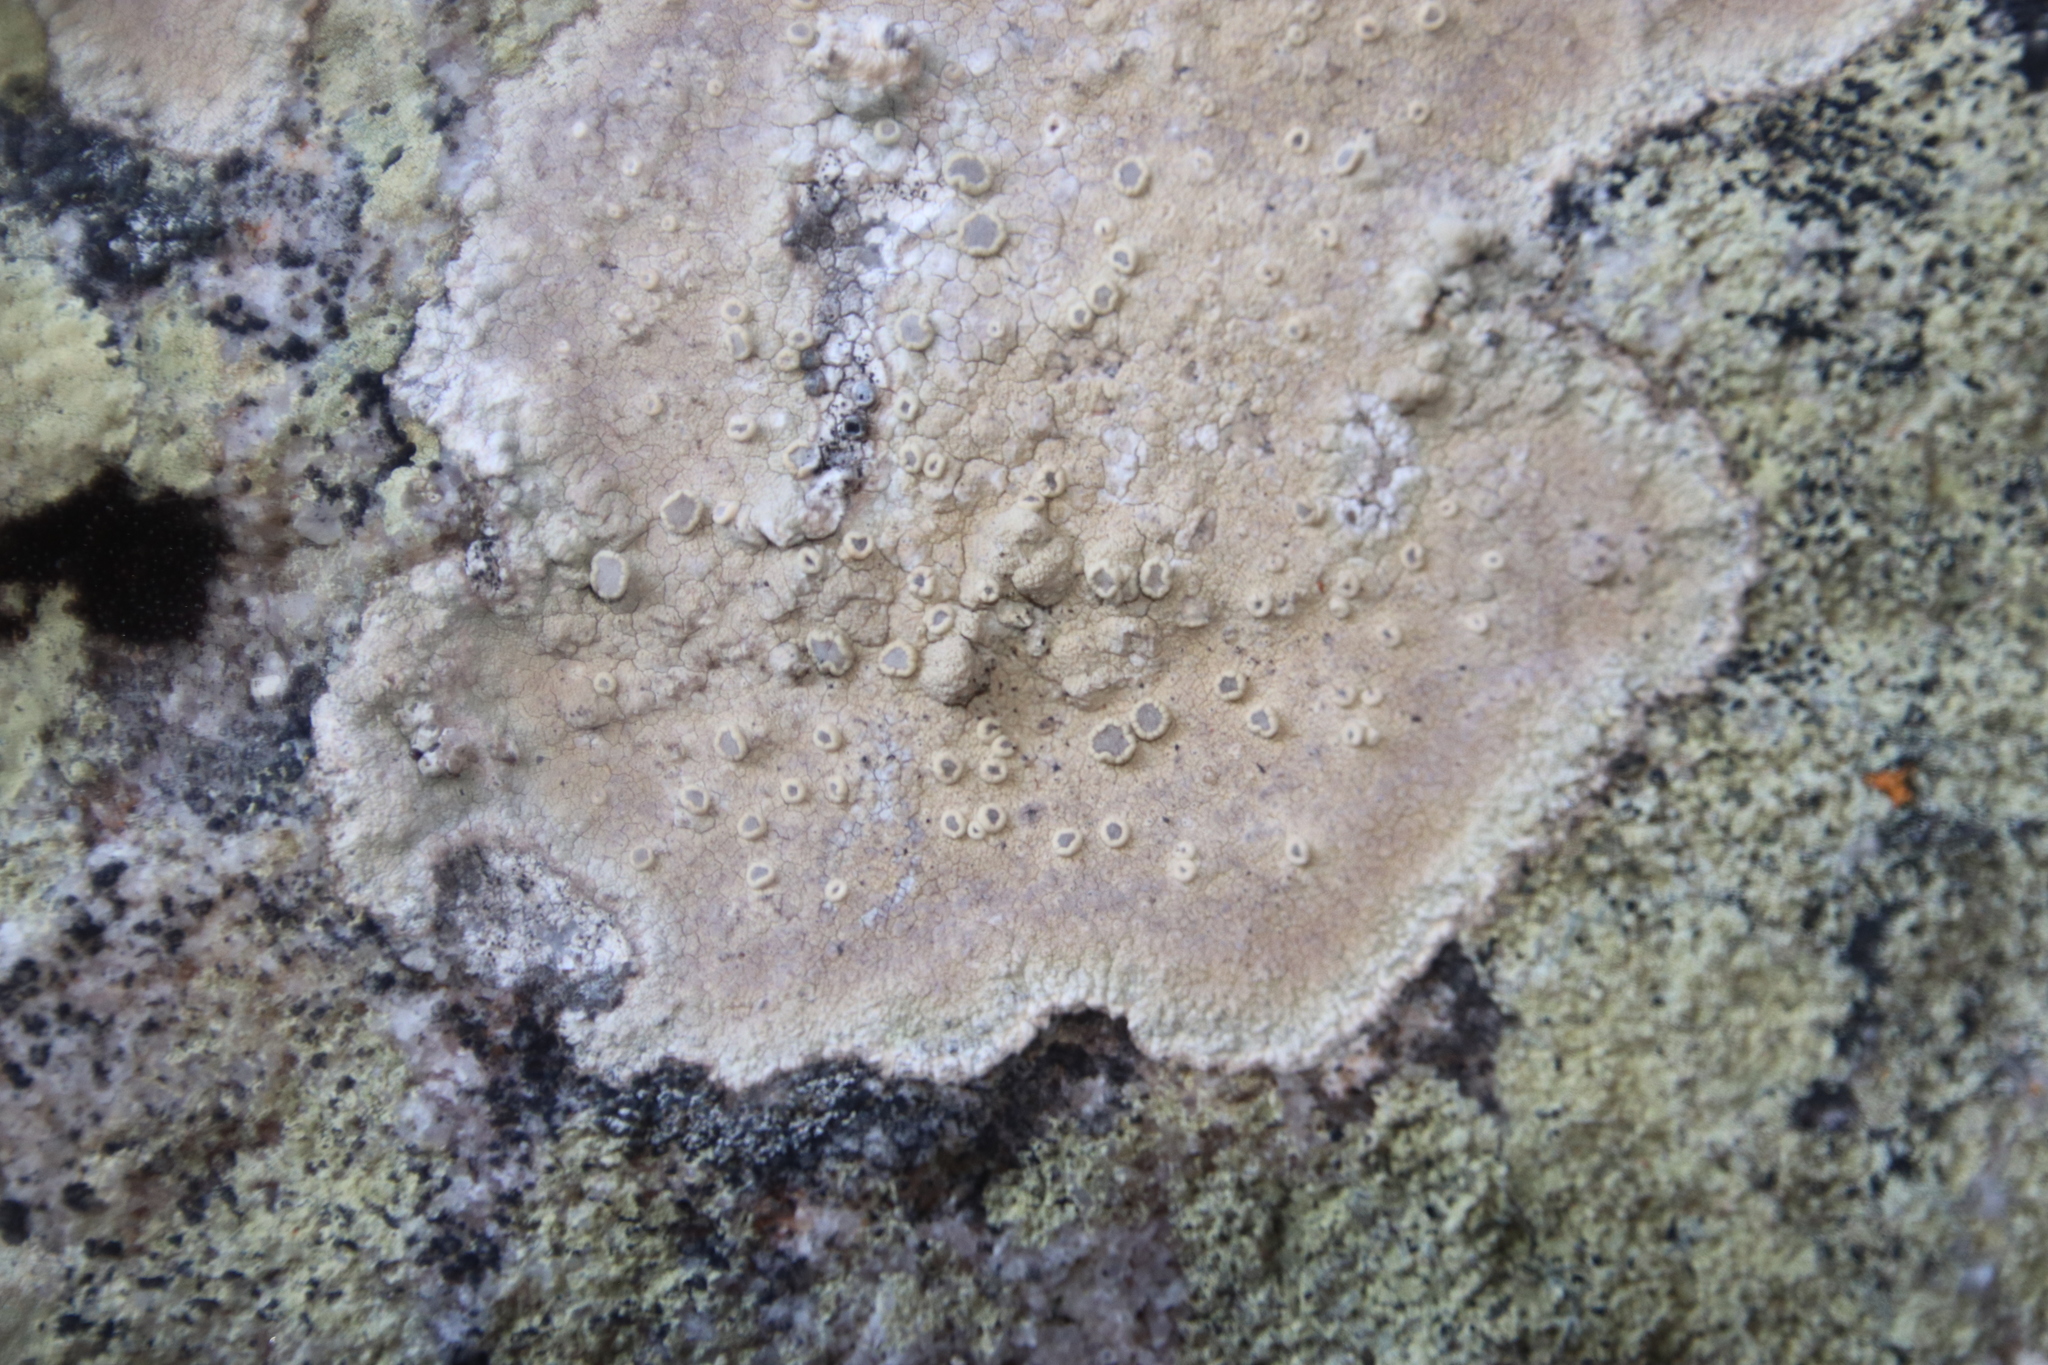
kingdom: Fungi
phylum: Ascomycota
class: Arthoniomycetes
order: Arthoniales
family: Roccellaceae
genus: Roccellina
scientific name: Roccellina capensis
